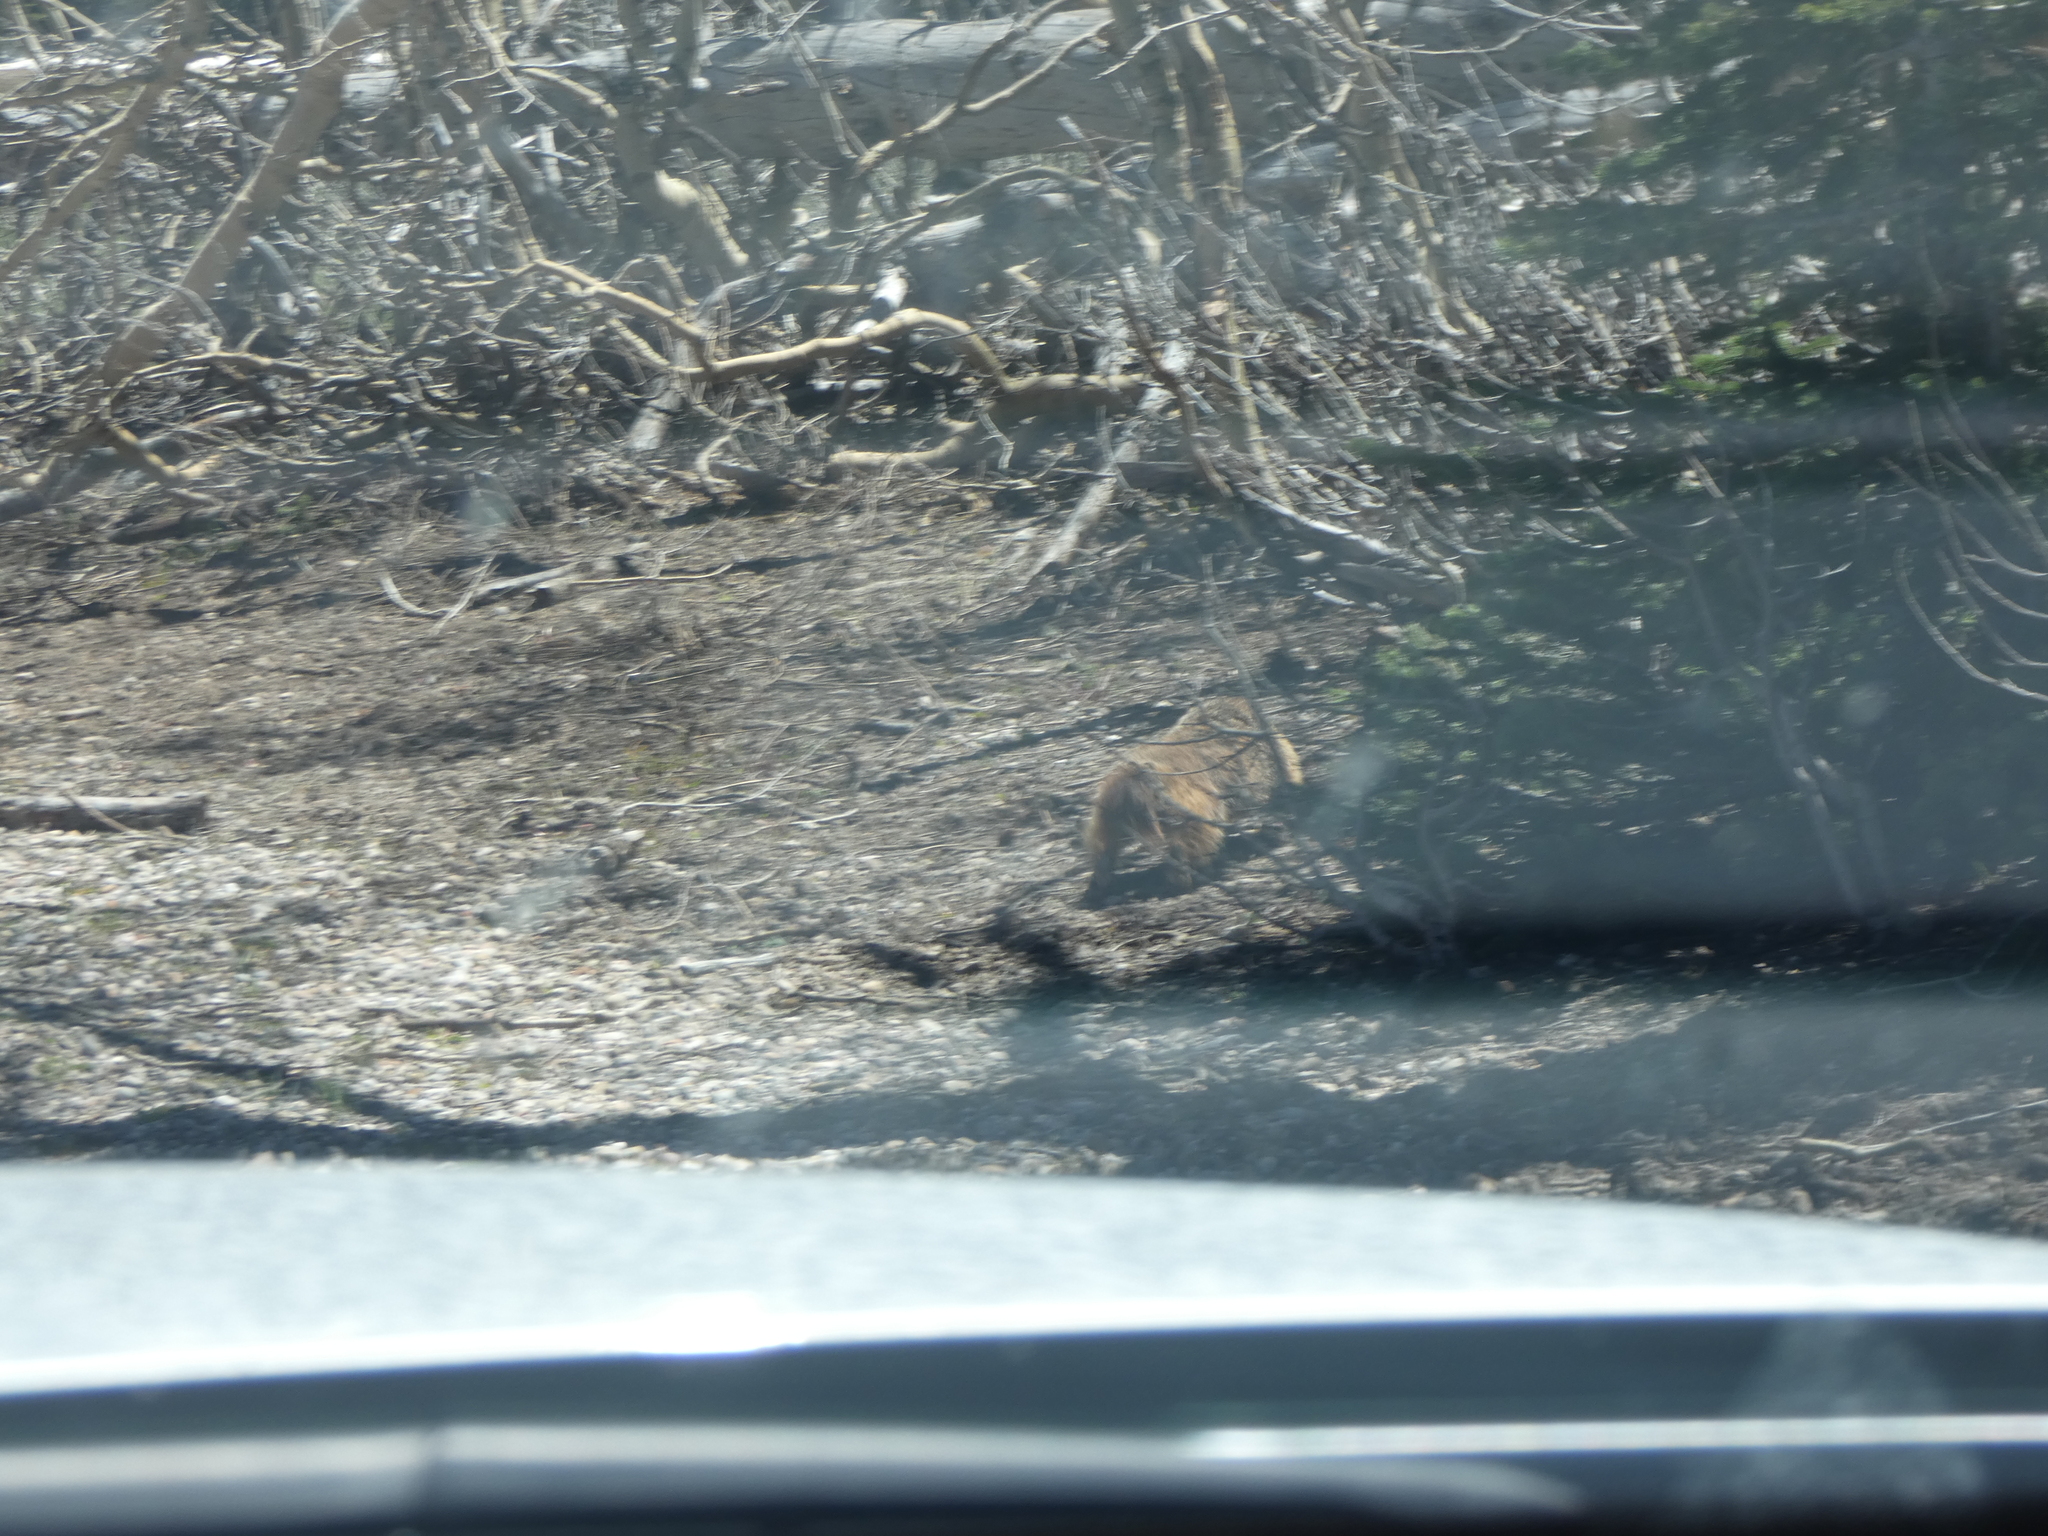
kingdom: Animalia
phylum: Chordata
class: Mammalia
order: Rodentia
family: Sciuridae
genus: Marmota
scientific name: Marmota flaviventris
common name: Yellow-bellied marmot
